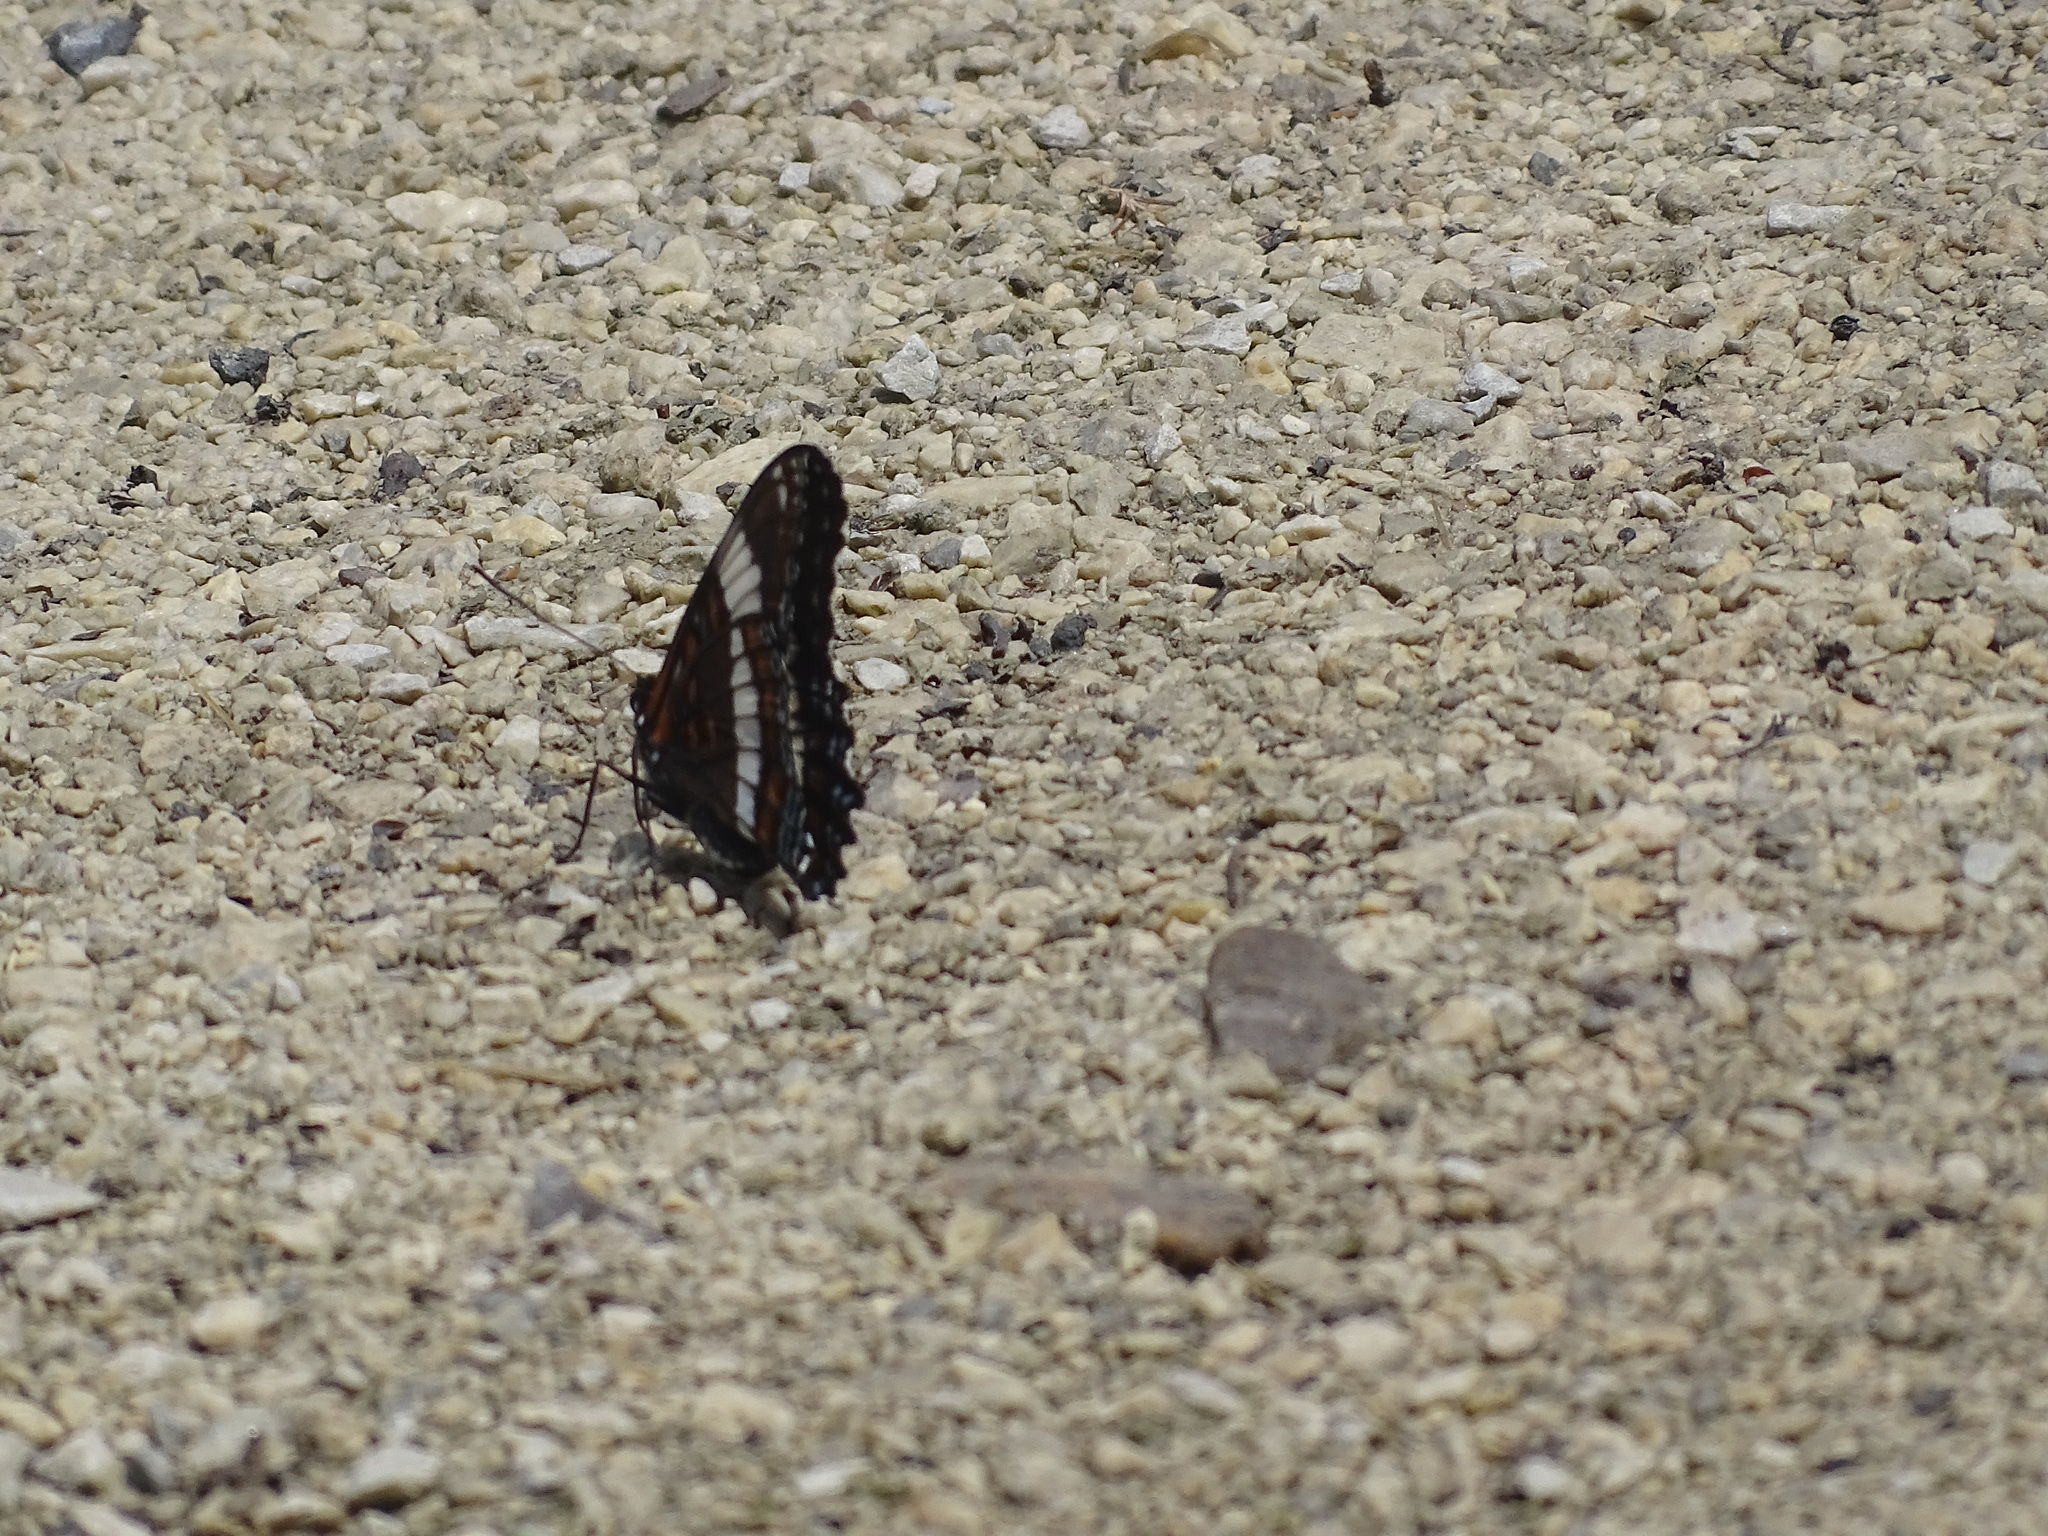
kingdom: Animalia
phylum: Arthropoda
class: Insecta
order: Lepidoptera
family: Nymphalidae
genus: Limenitis
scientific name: Limenitis arthemis
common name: Red-spotted admiral
